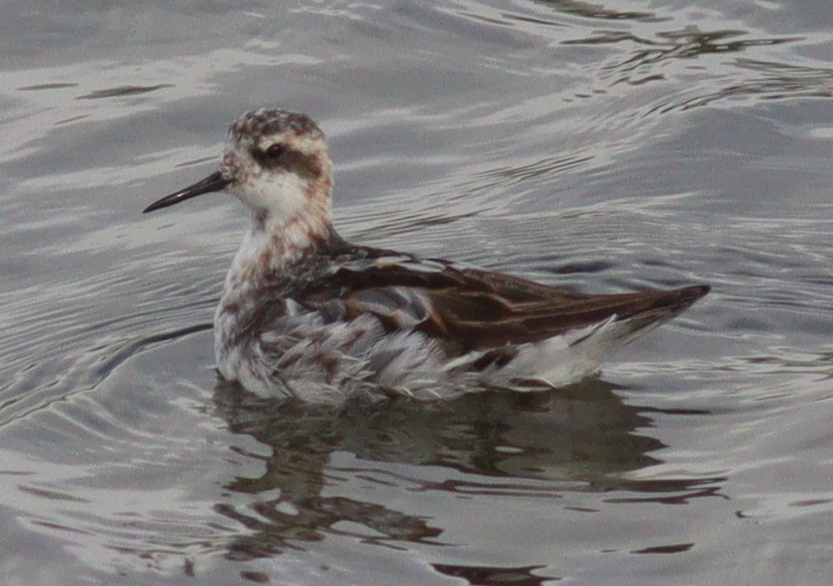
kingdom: Animalia
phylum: Chordata
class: Aves
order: Charadriiformes
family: Scolopacidae
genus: Phalaropus
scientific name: Phalaropus lobatus
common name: Red-necked phalarope
